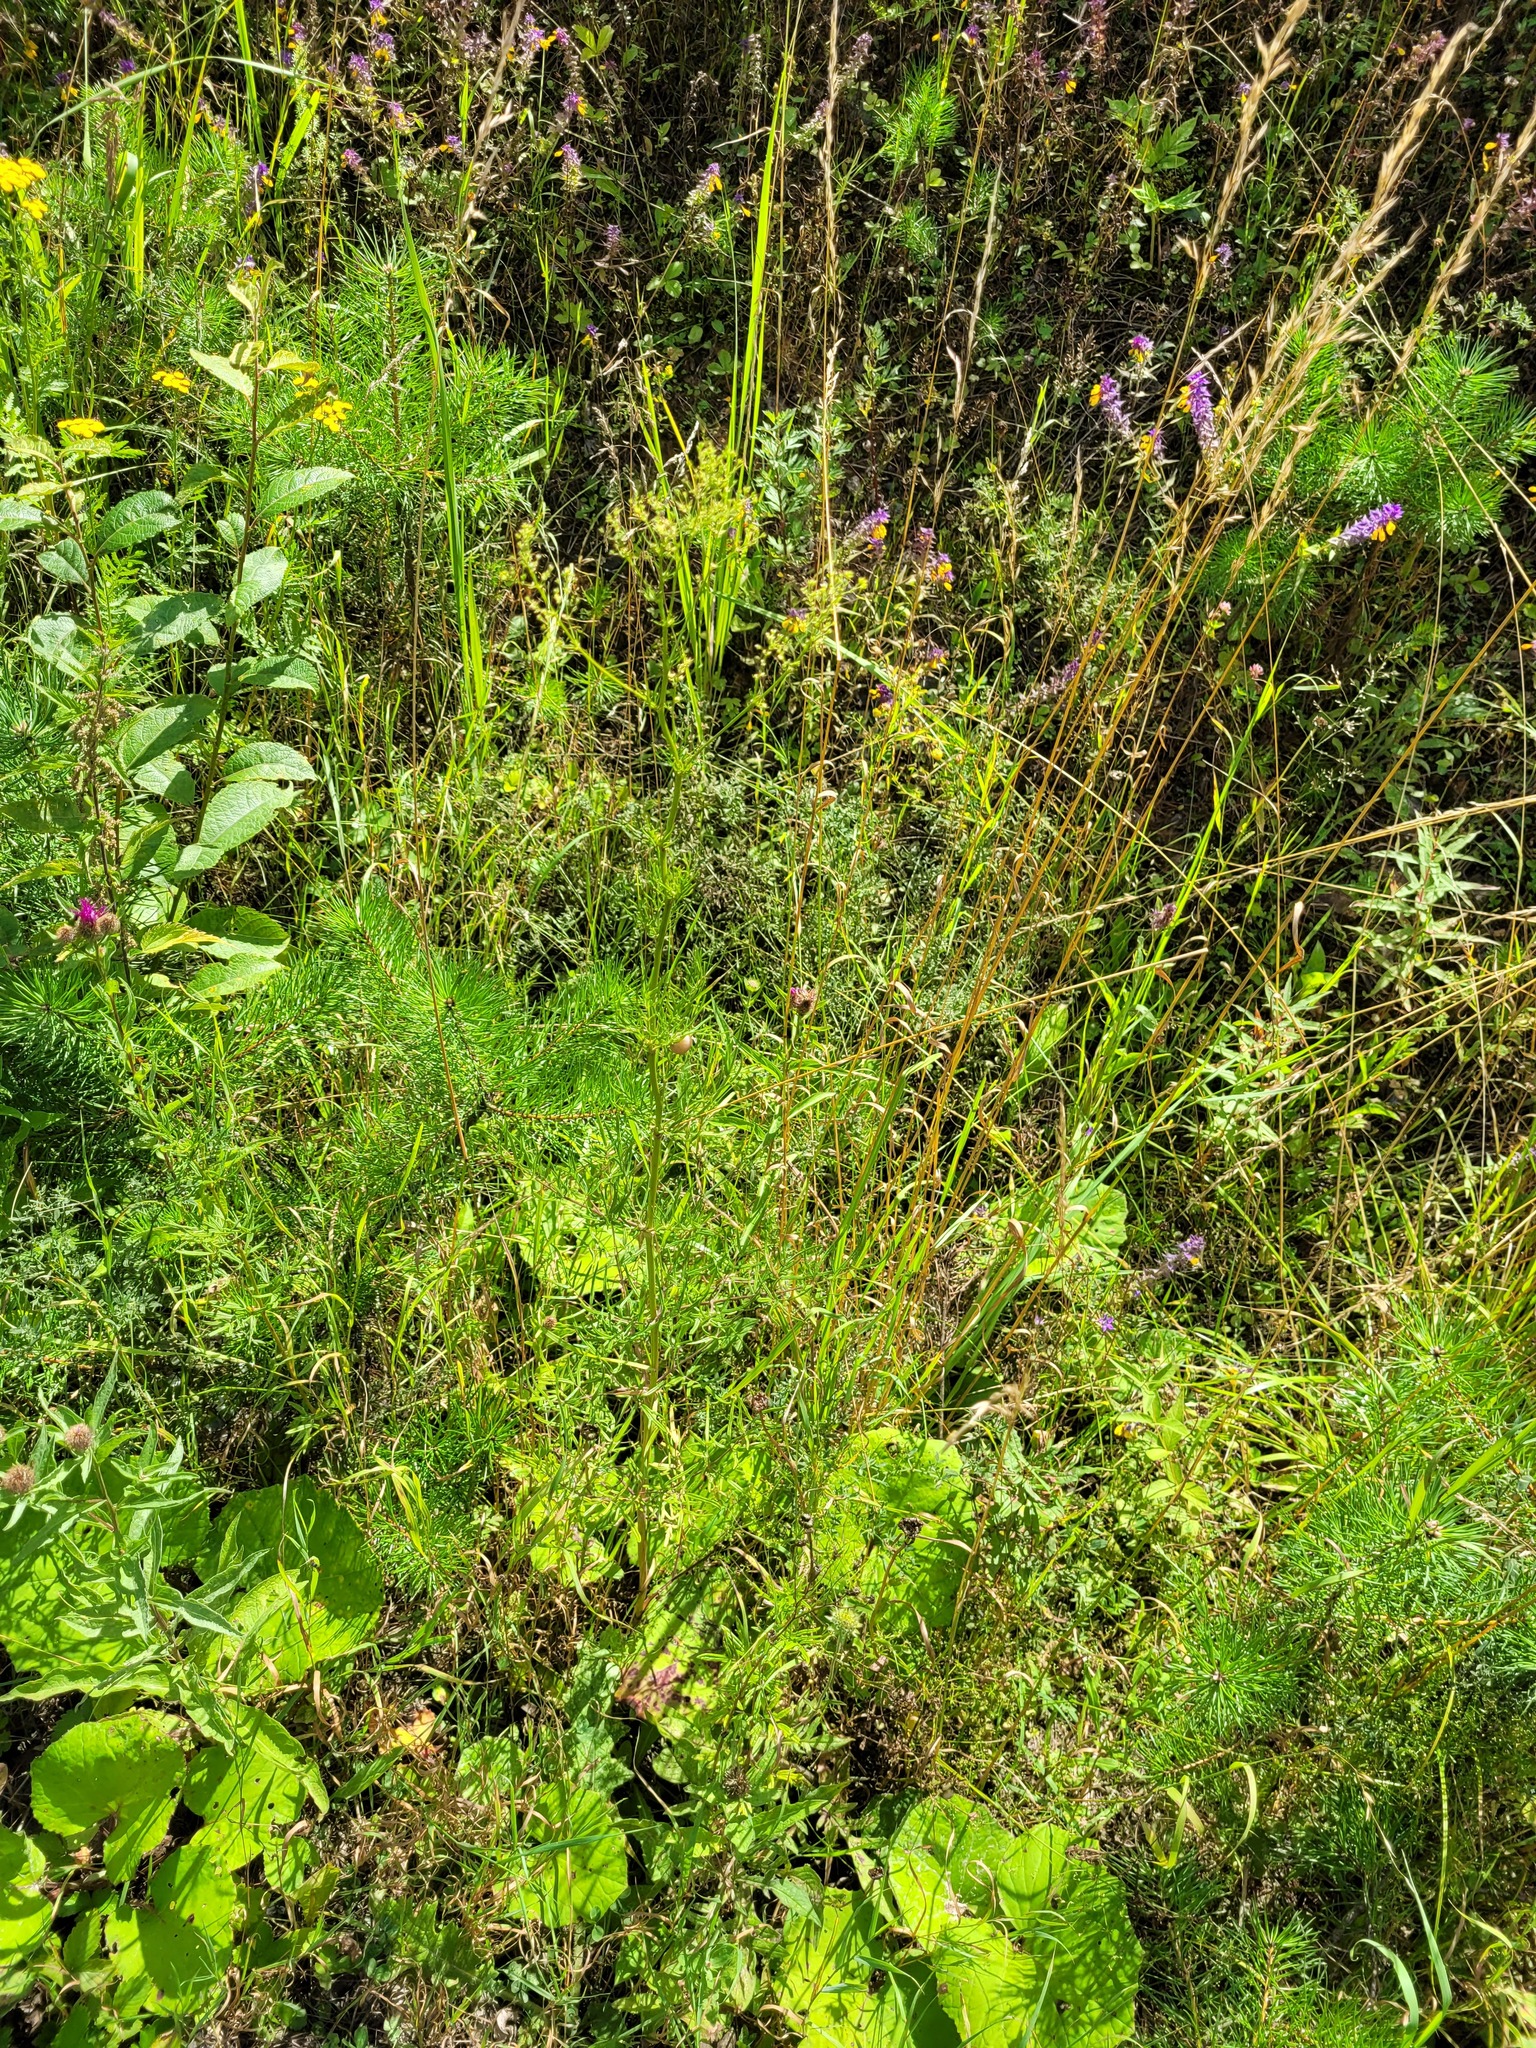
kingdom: Plantae
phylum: Tracheophyta
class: Magnoliopsida
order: Ranunculales
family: Ranunculaceae
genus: Thalictrum
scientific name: Thalictrum lucidum
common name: Shining meadow-rue
